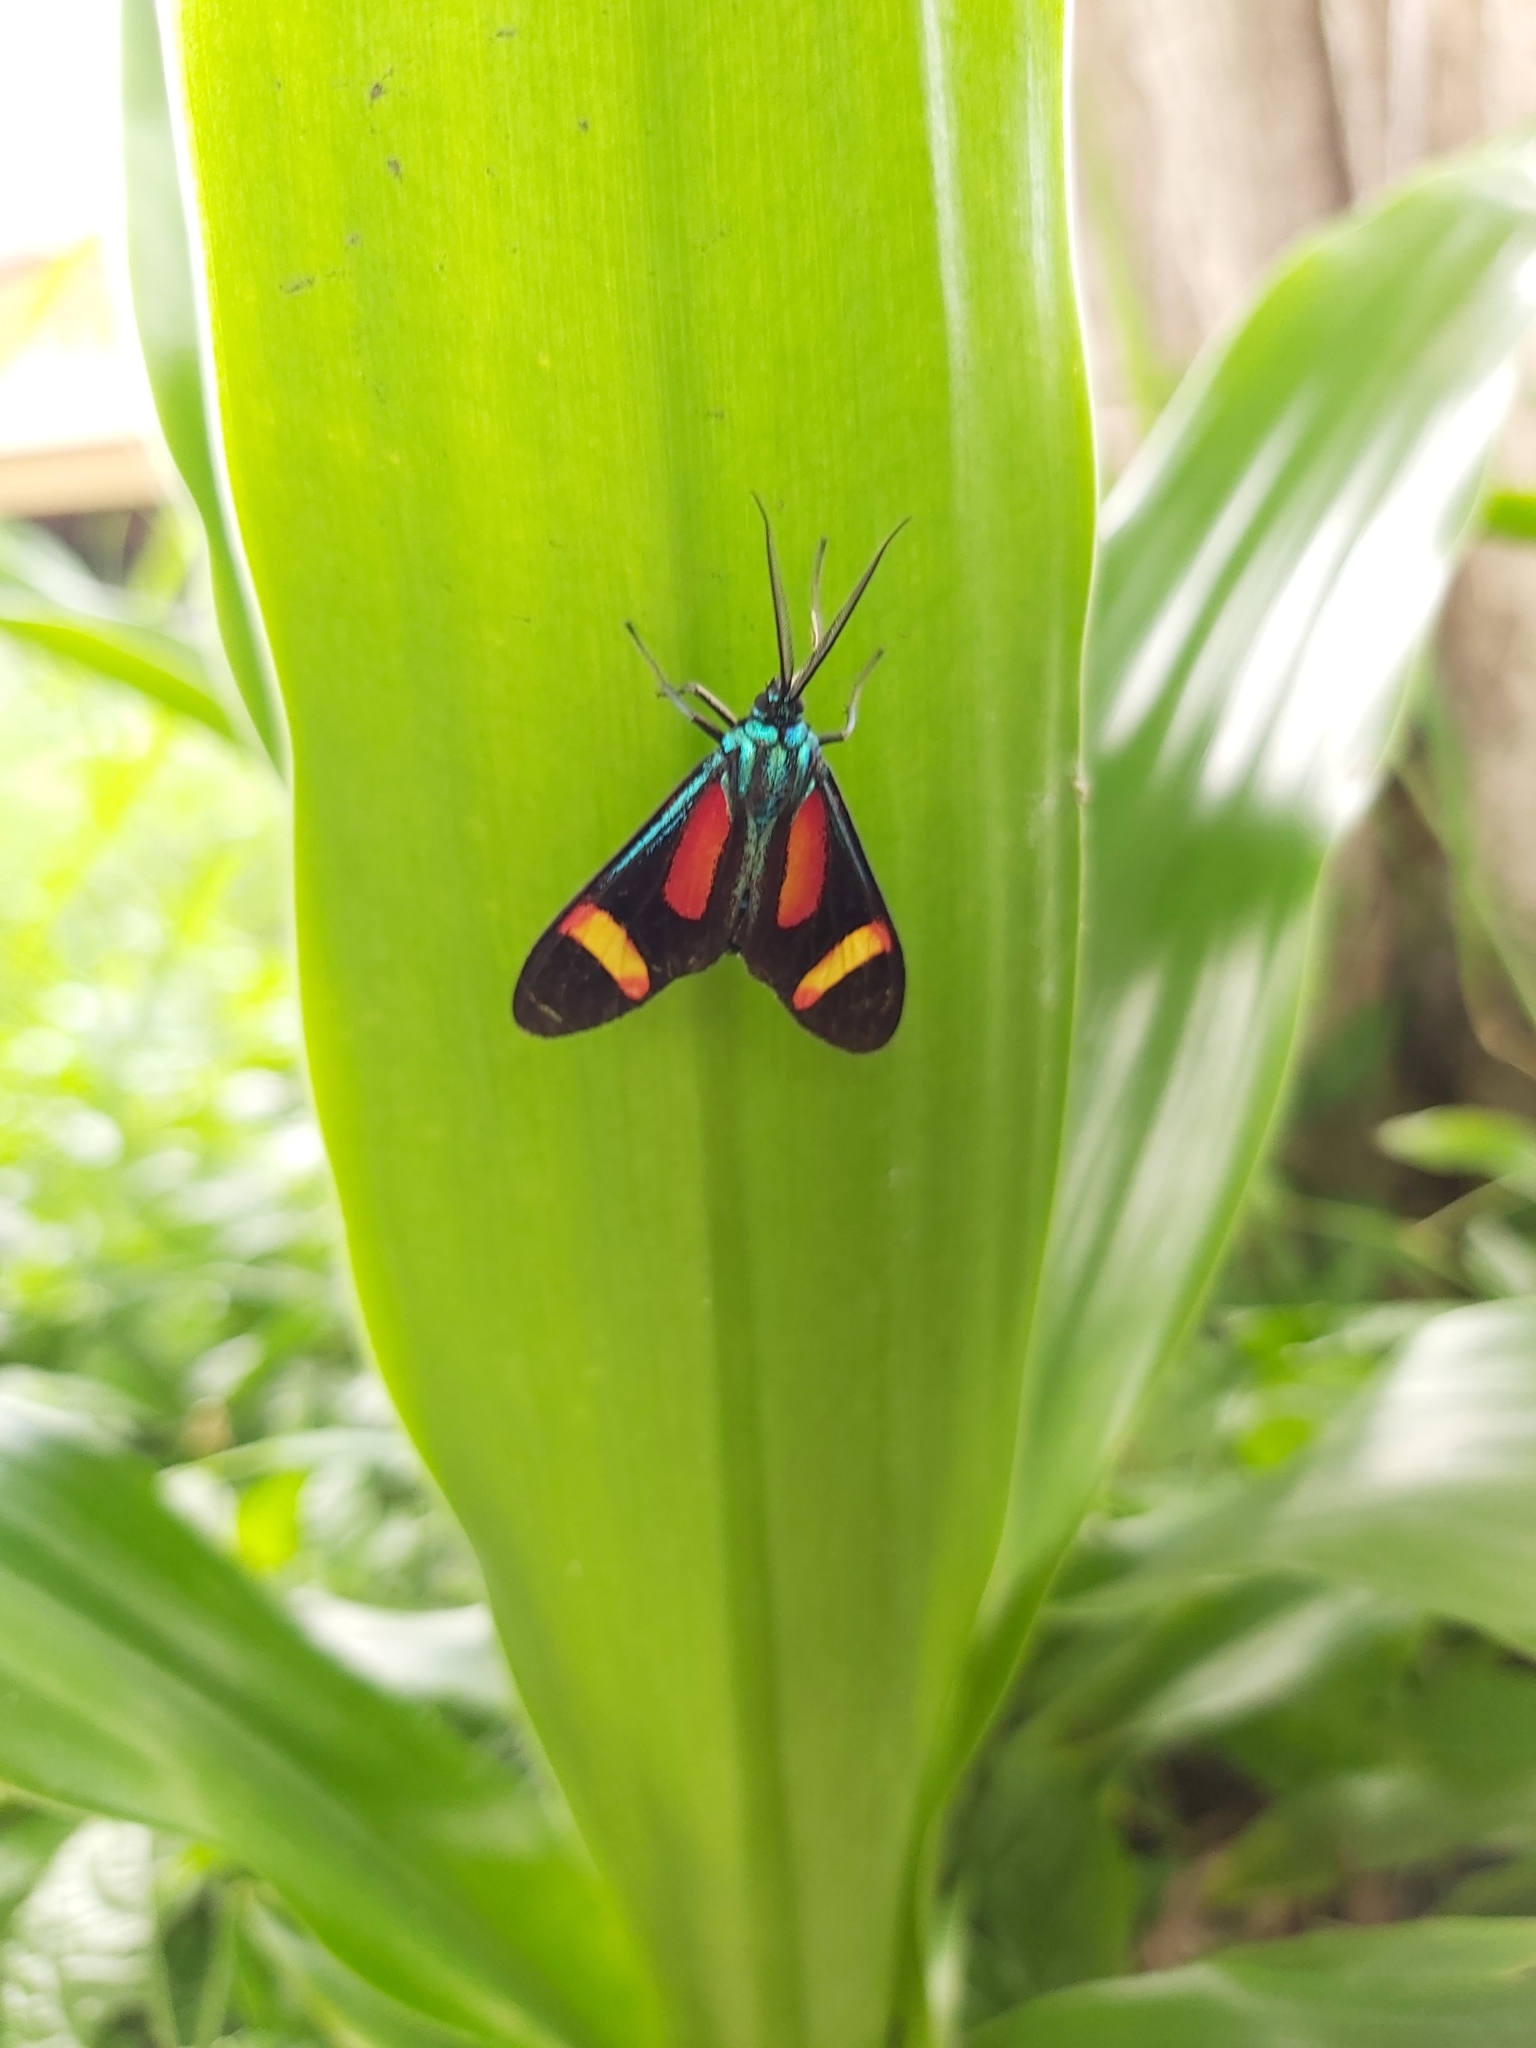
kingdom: Animalia
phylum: Arthropoda
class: Insecta
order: Lepidoptera
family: Erebidae
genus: Cyanopepla
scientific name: Cyanopepla submacula
